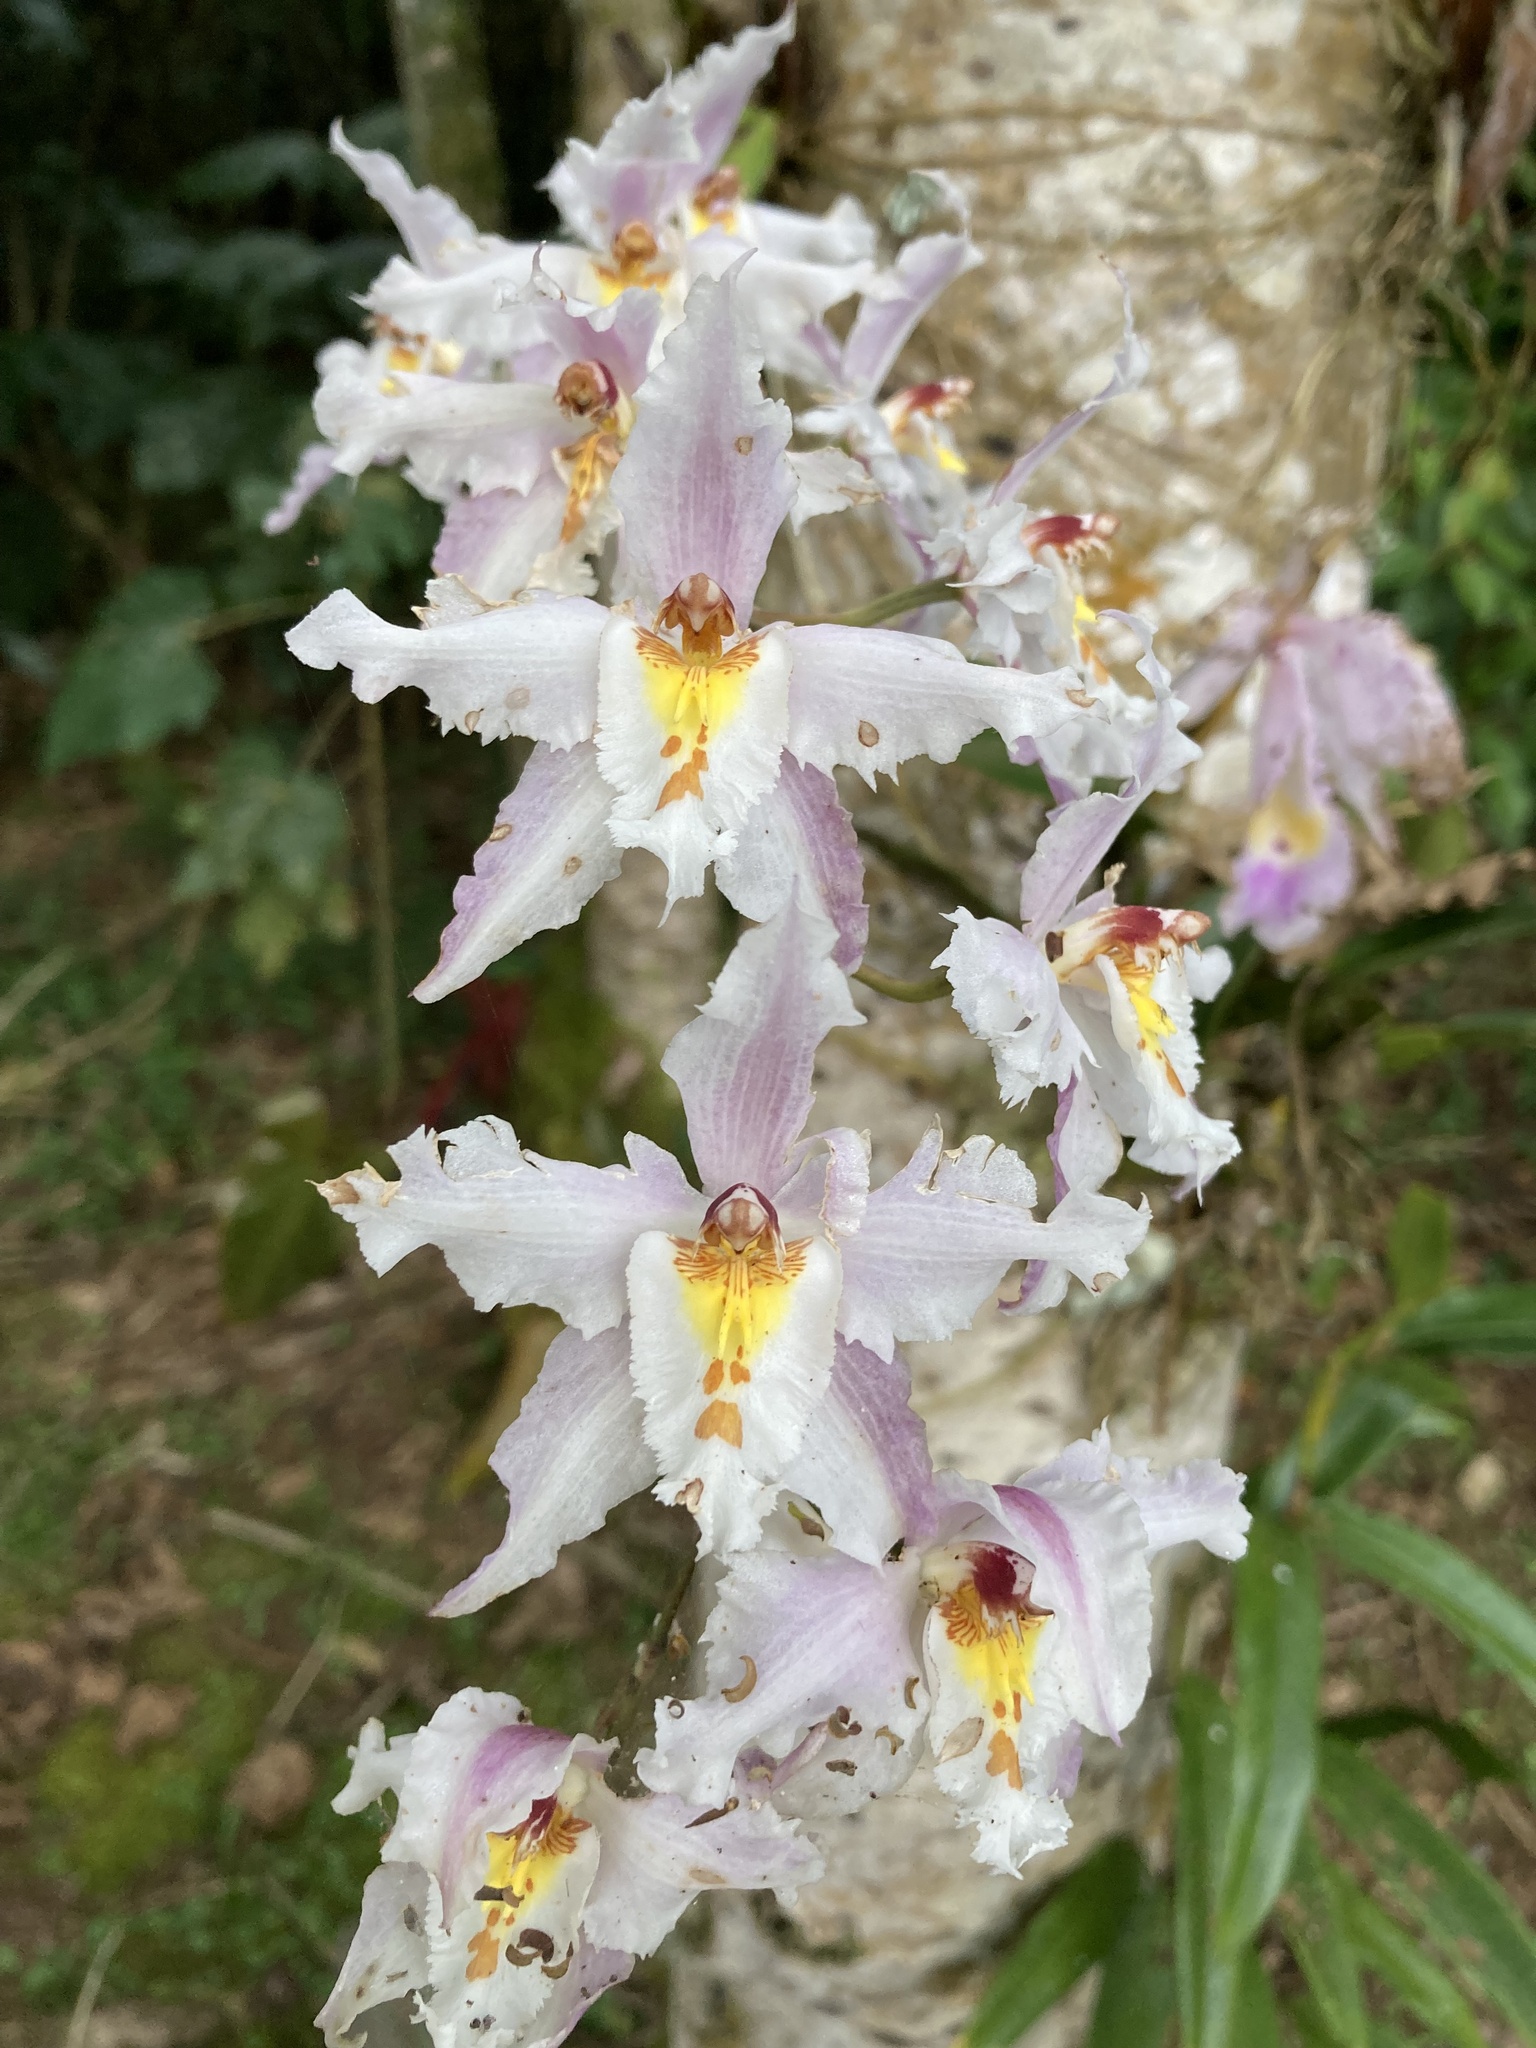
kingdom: Plantae
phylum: Tracheophyta
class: Liliopsida
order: Asparagales
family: Orchidaceae
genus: Oncidium
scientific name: Oncidium alexandrae
